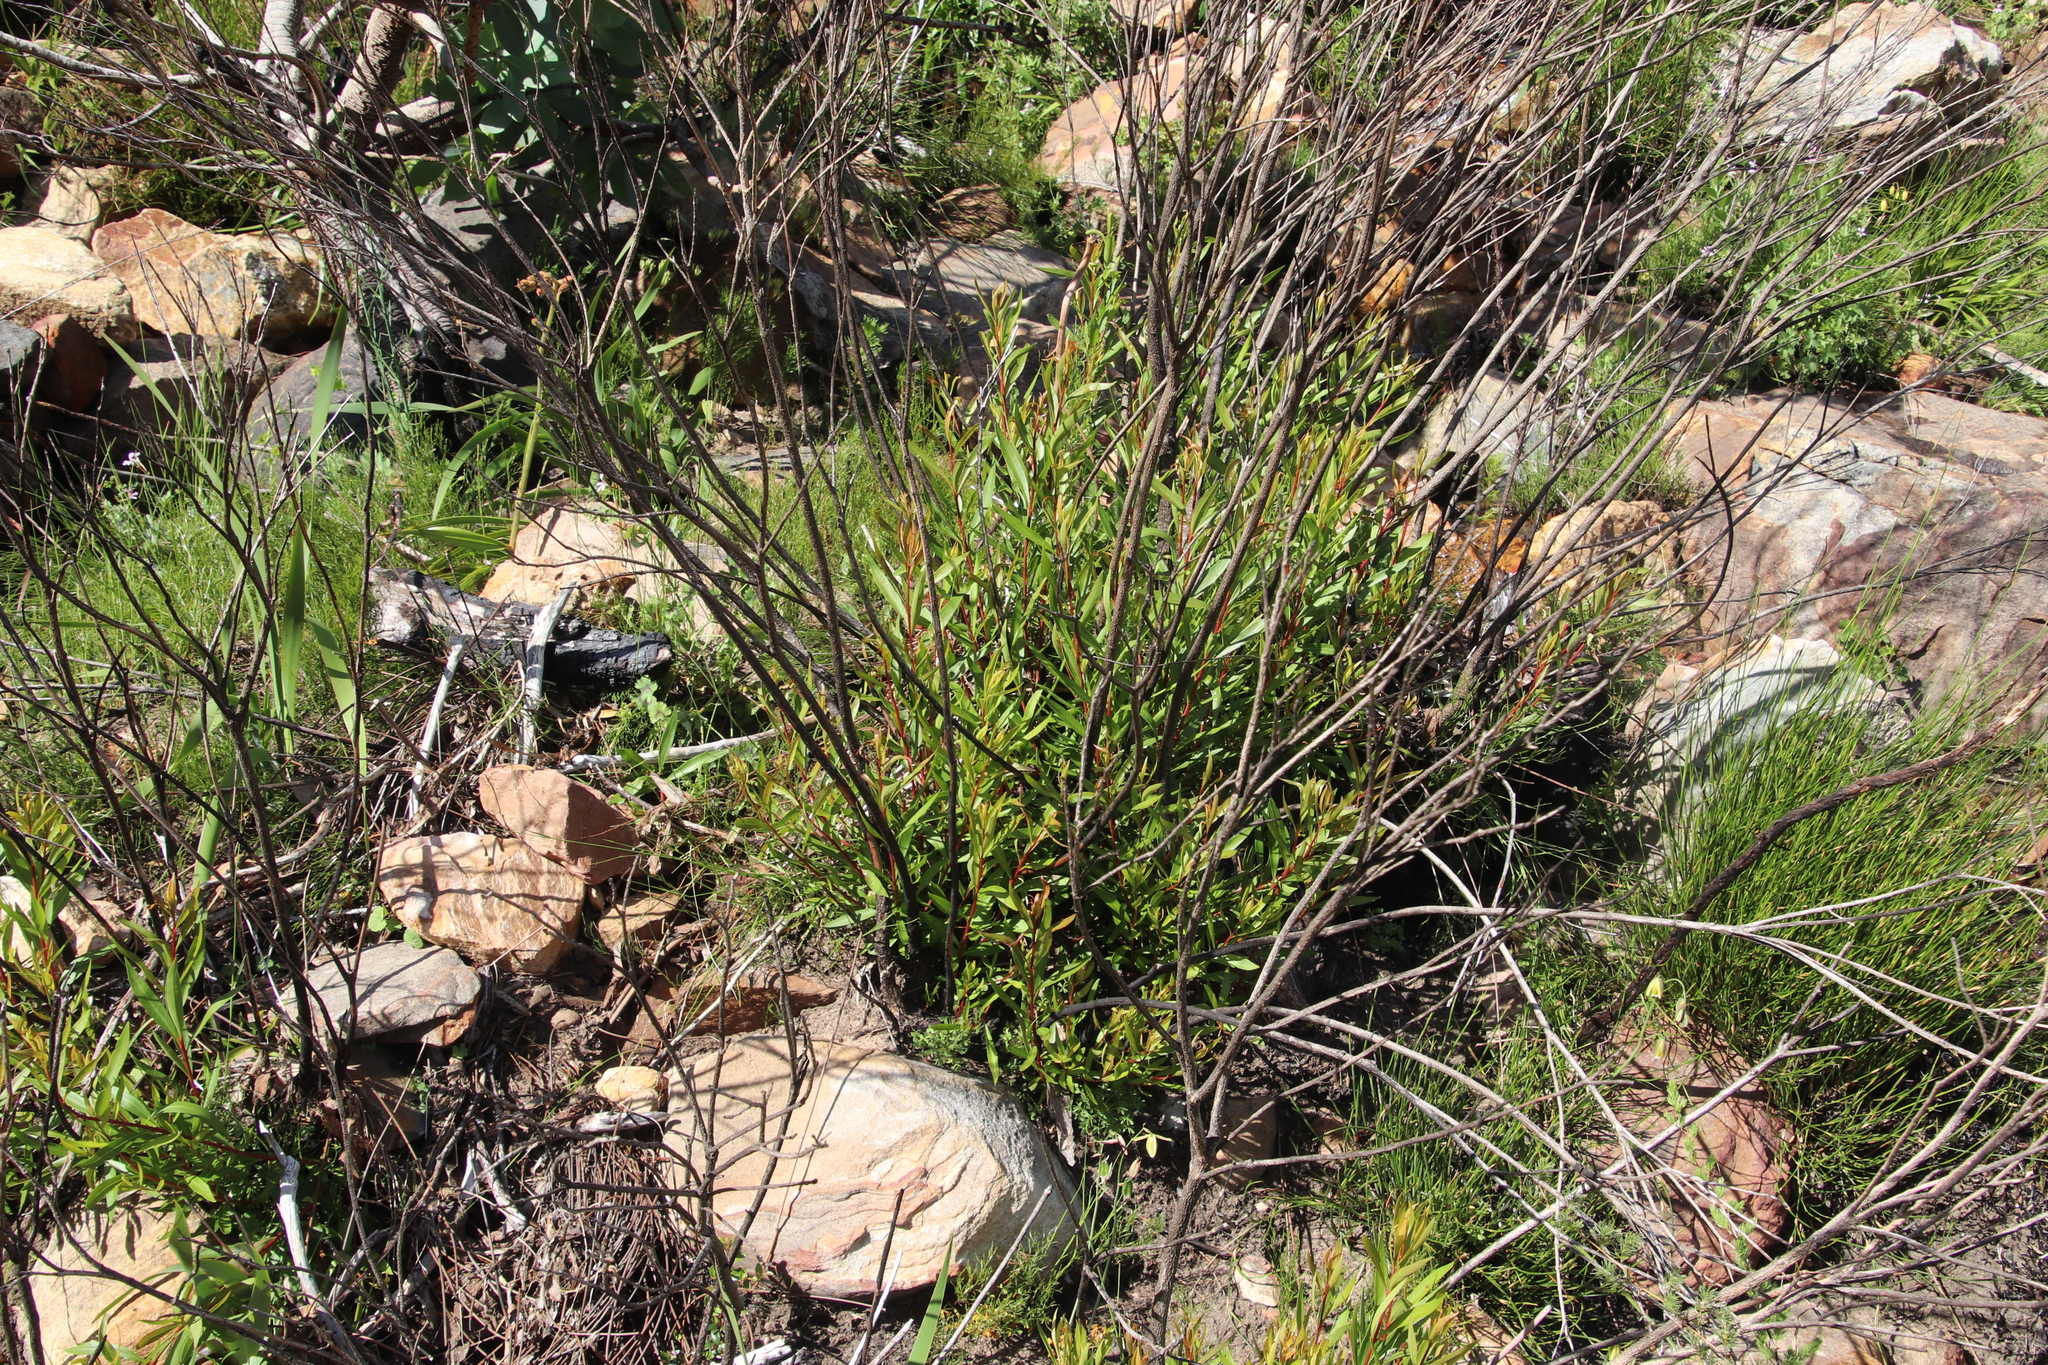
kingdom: Plantae
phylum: Tracheophyta
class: Magnoliopsida
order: Myrtales
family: Myrtaceae
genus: Callistemon
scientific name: Callistemon lanceolatus
